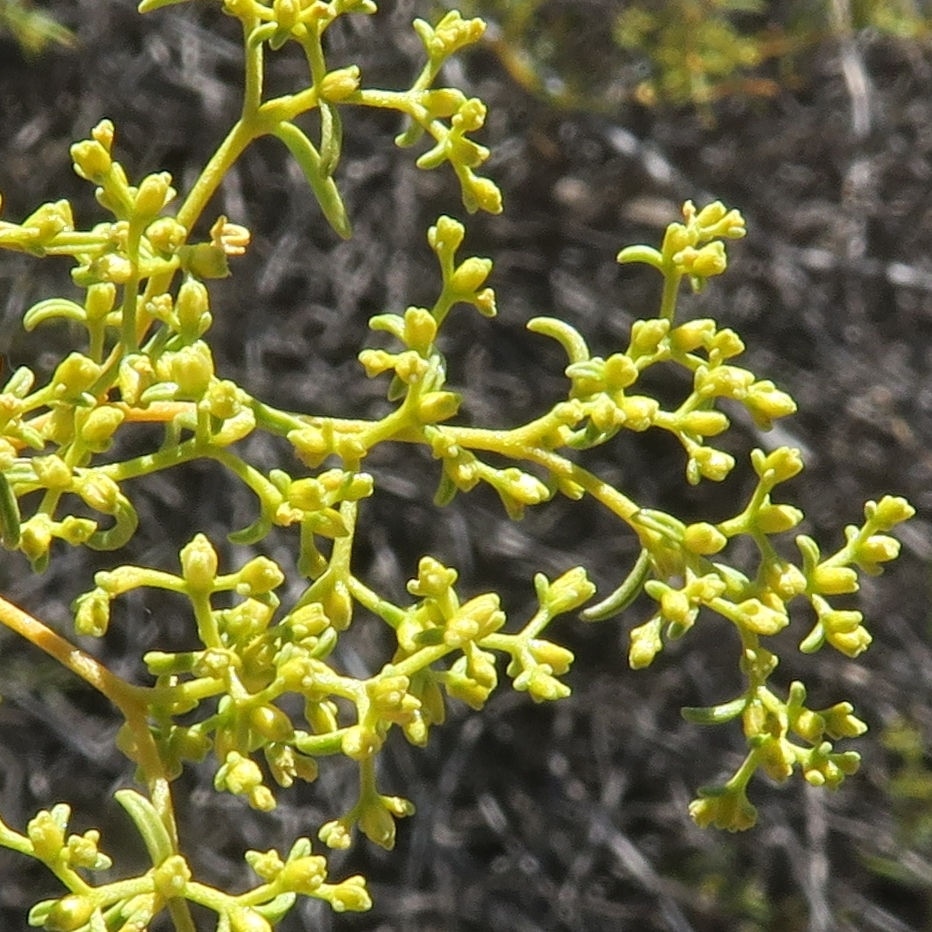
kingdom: Plantae
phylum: Tracheophyta
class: Magnoliopsida
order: Caryophyllales
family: Aizoaceae
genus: Aizoon
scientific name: Aizoon africanum
